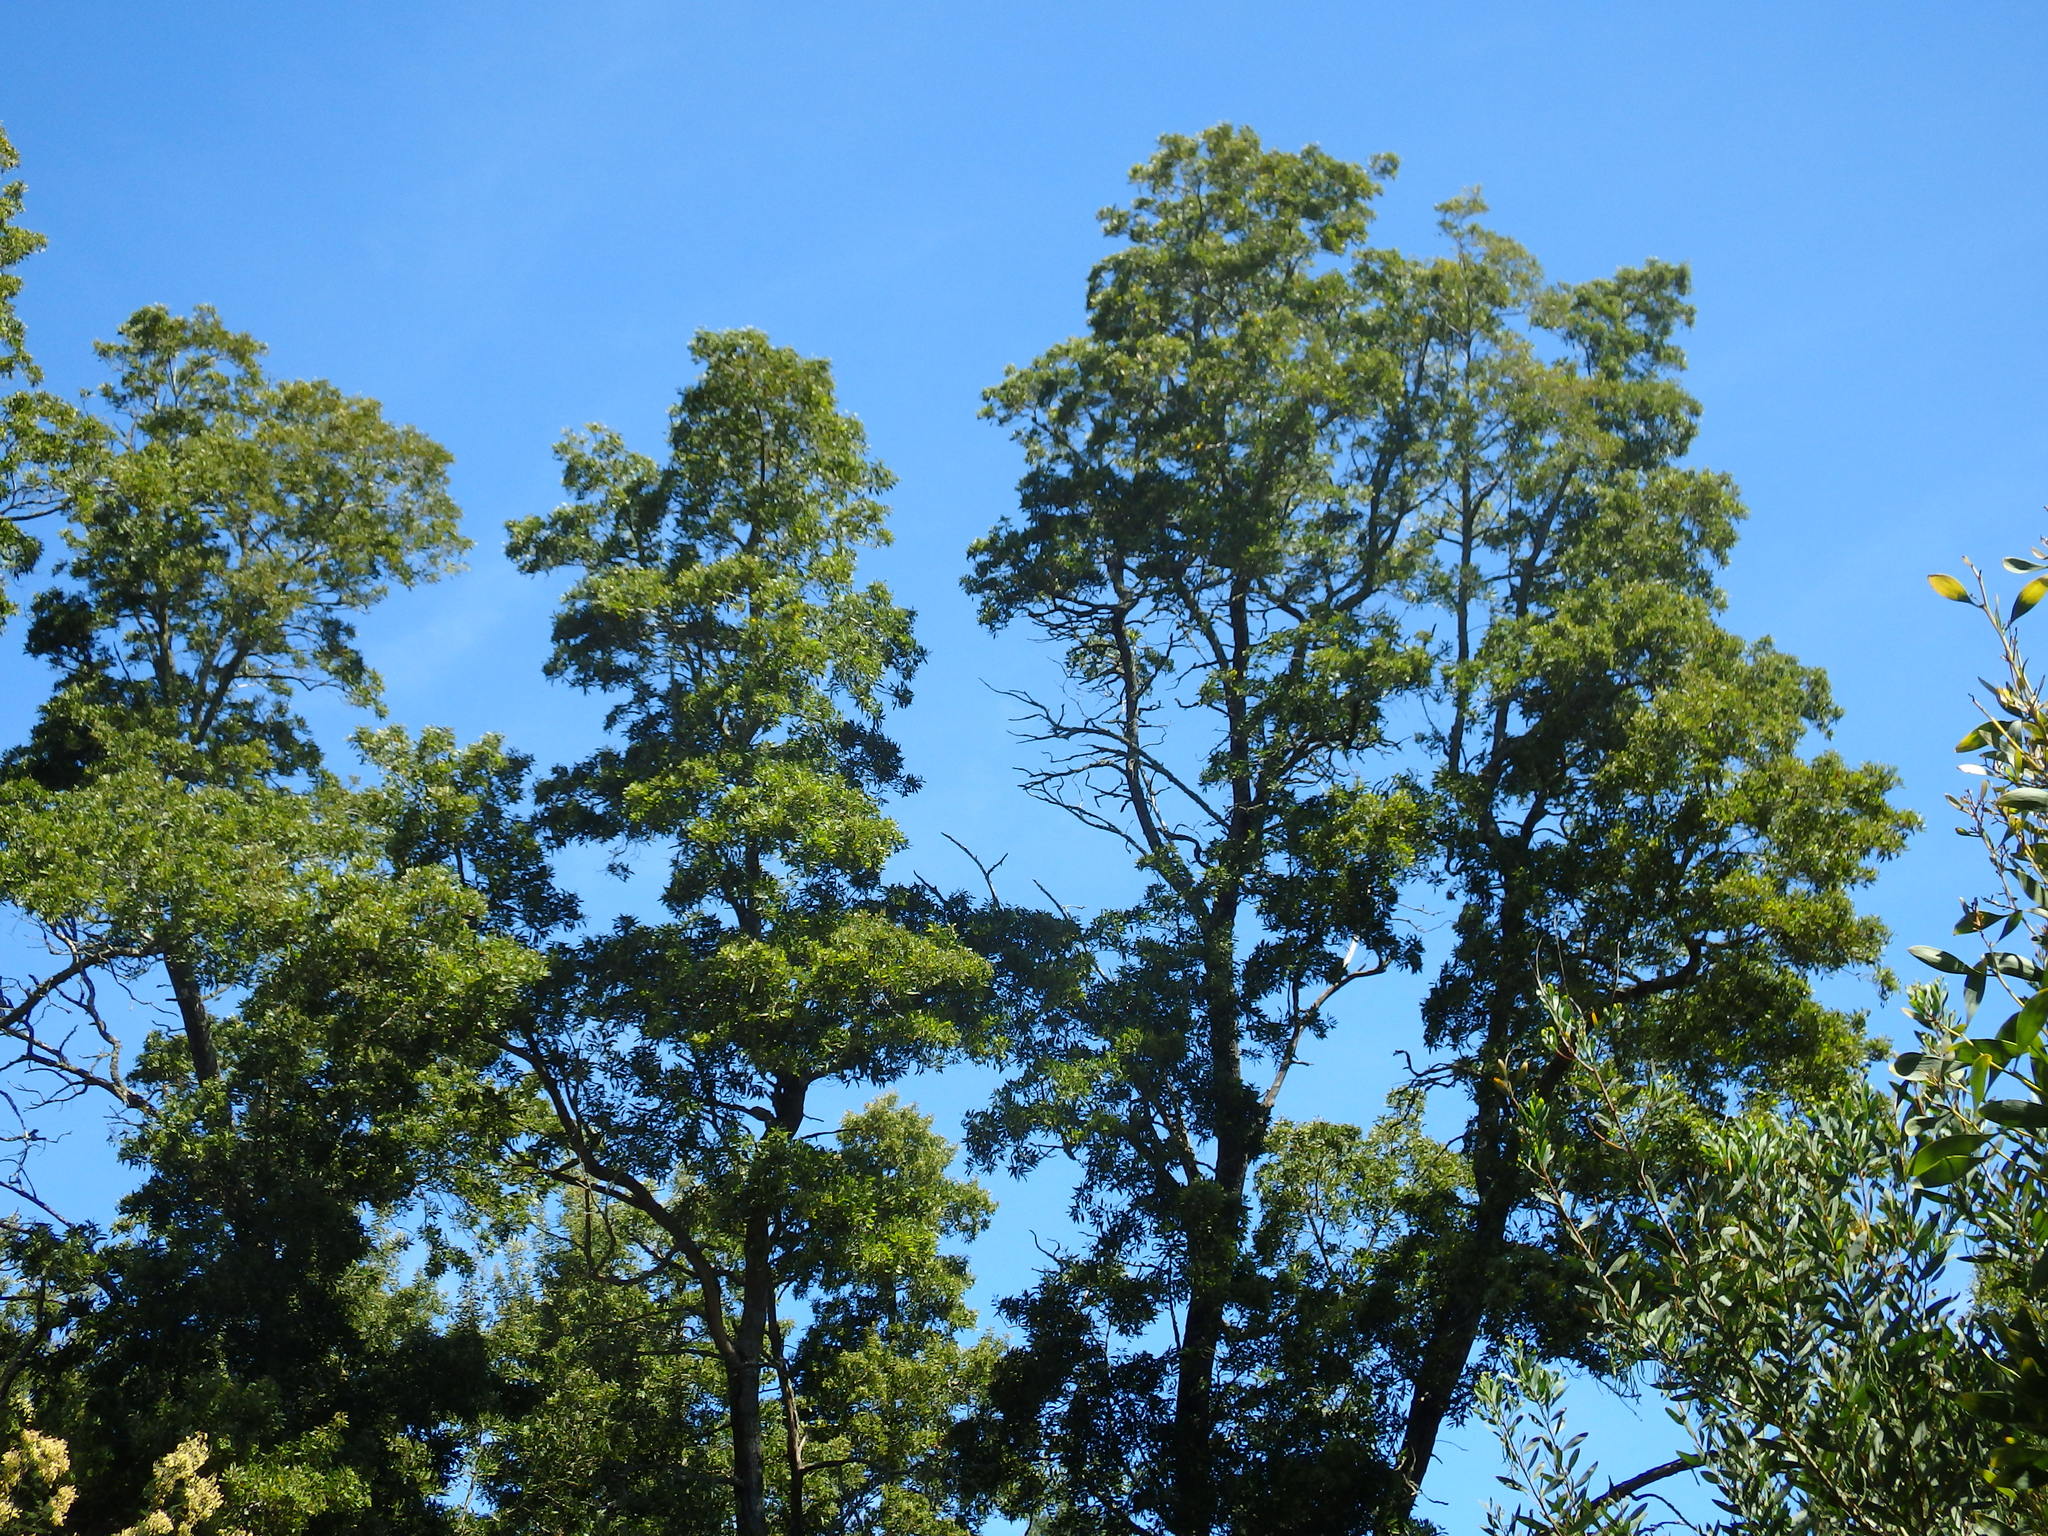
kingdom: Plantae
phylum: Tracheophyta
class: Magnoliopsida
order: Fabales
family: Fabaceae
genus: Acacia
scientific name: Acacia melanoxylon
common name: Blackwood
